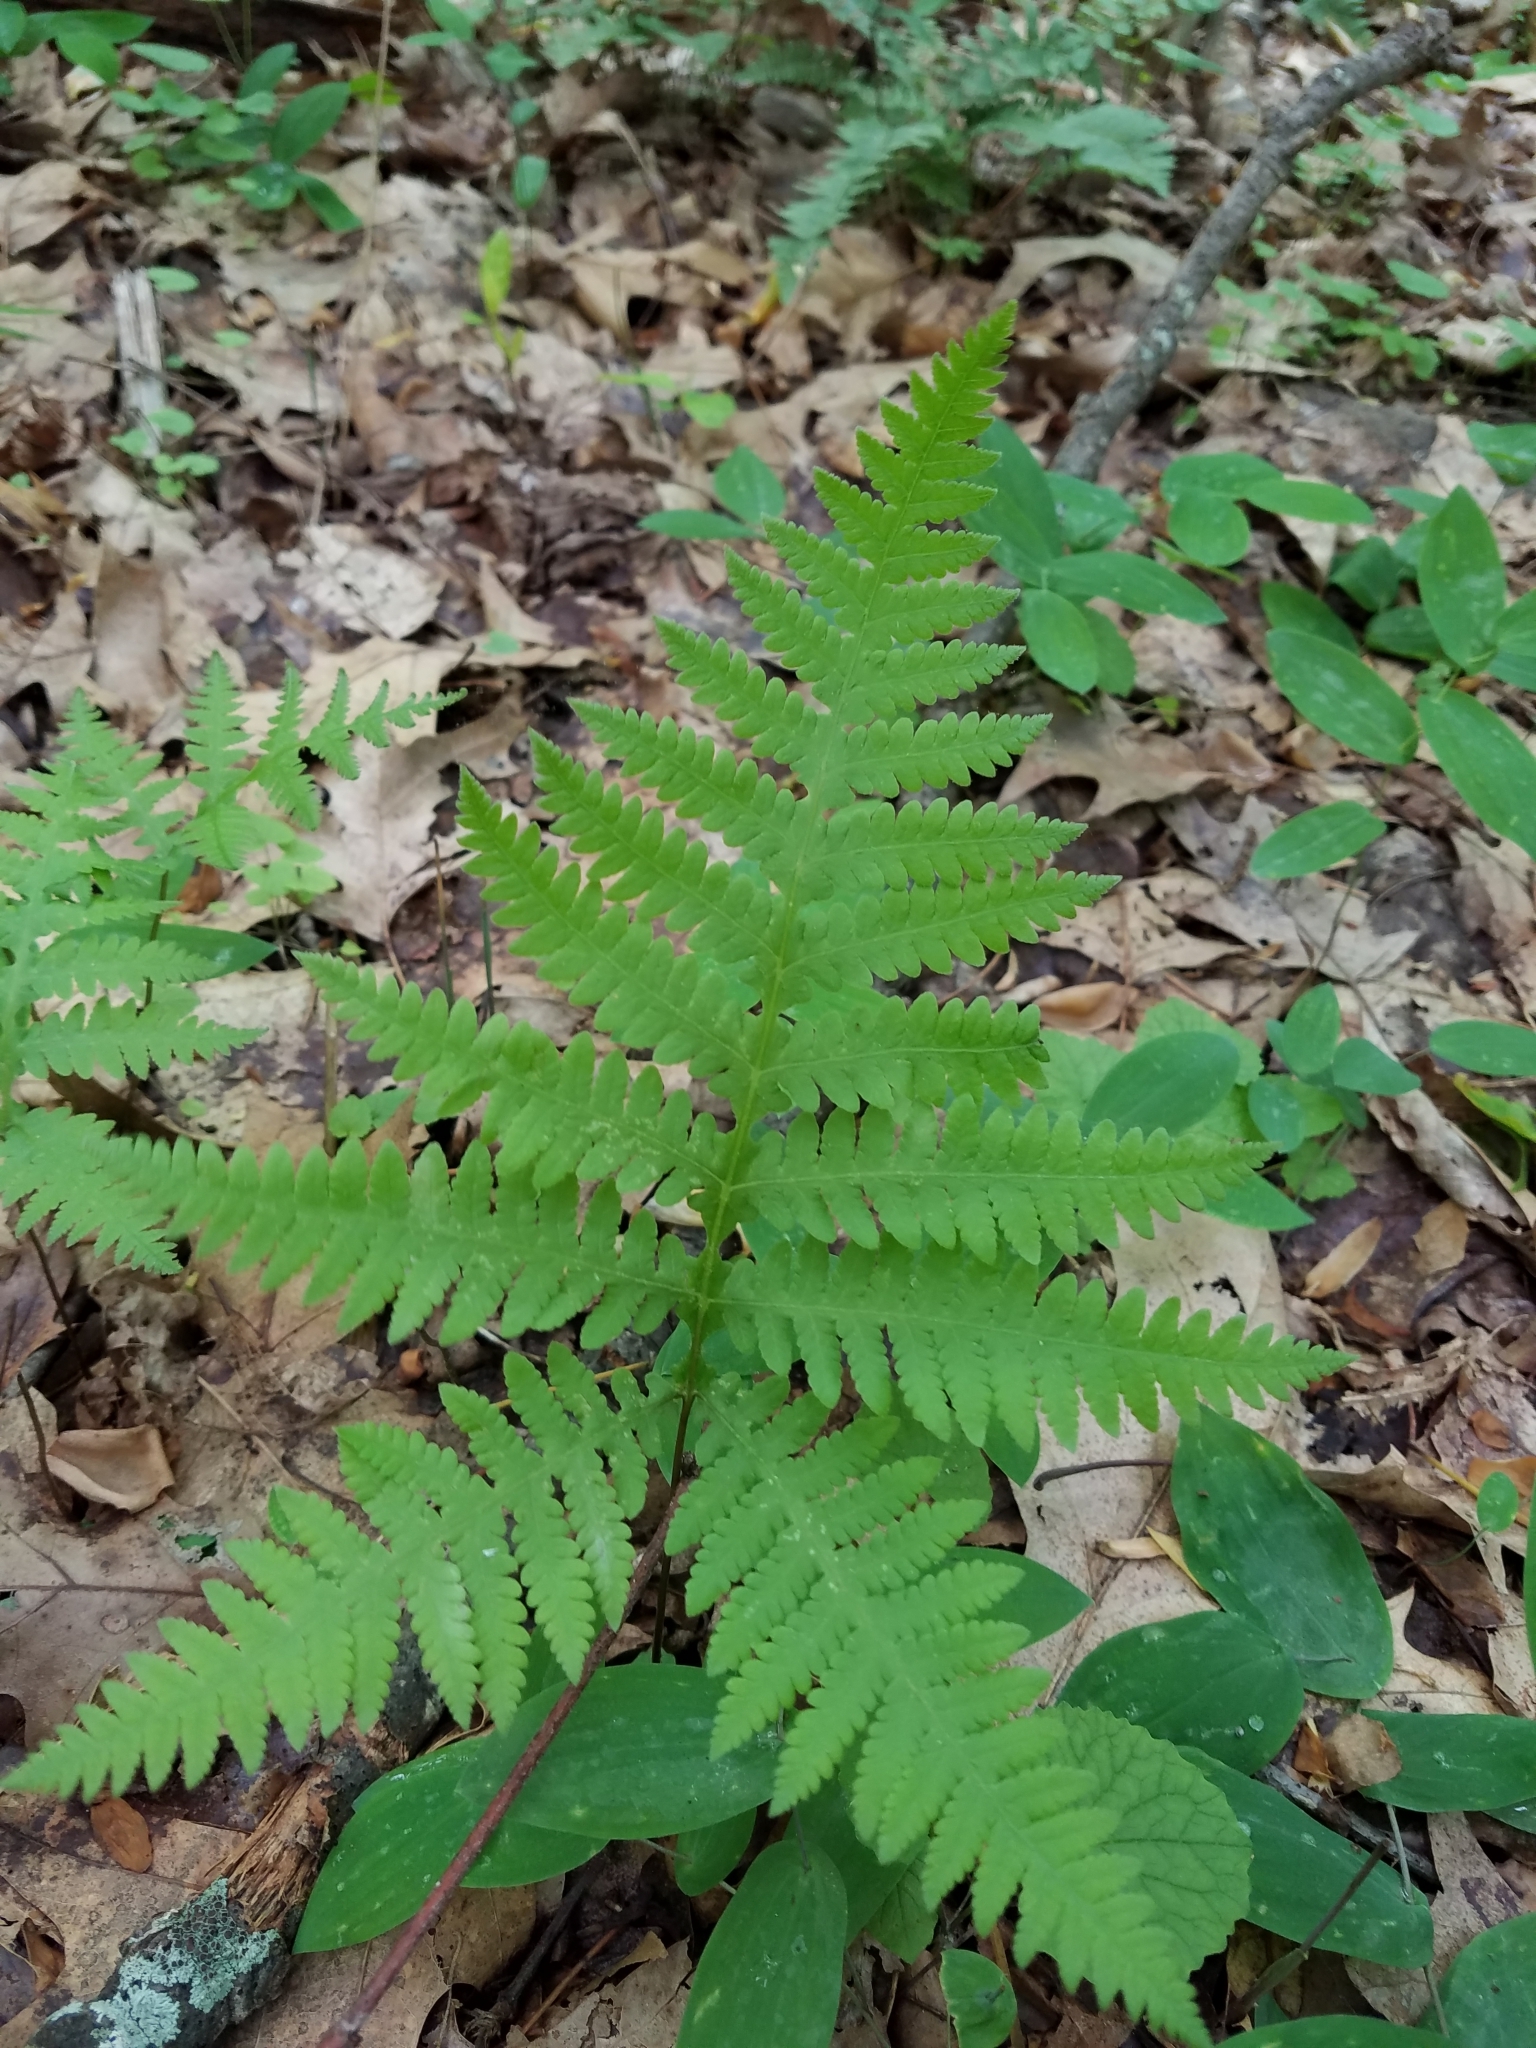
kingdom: Plantae
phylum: Tracheophyta
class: Polypodiopsida
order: Polypodiales
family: Thelypteridaceae
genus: Phegopteris
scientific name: Phegopteris hexagonoptera
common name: Broad beech fern
